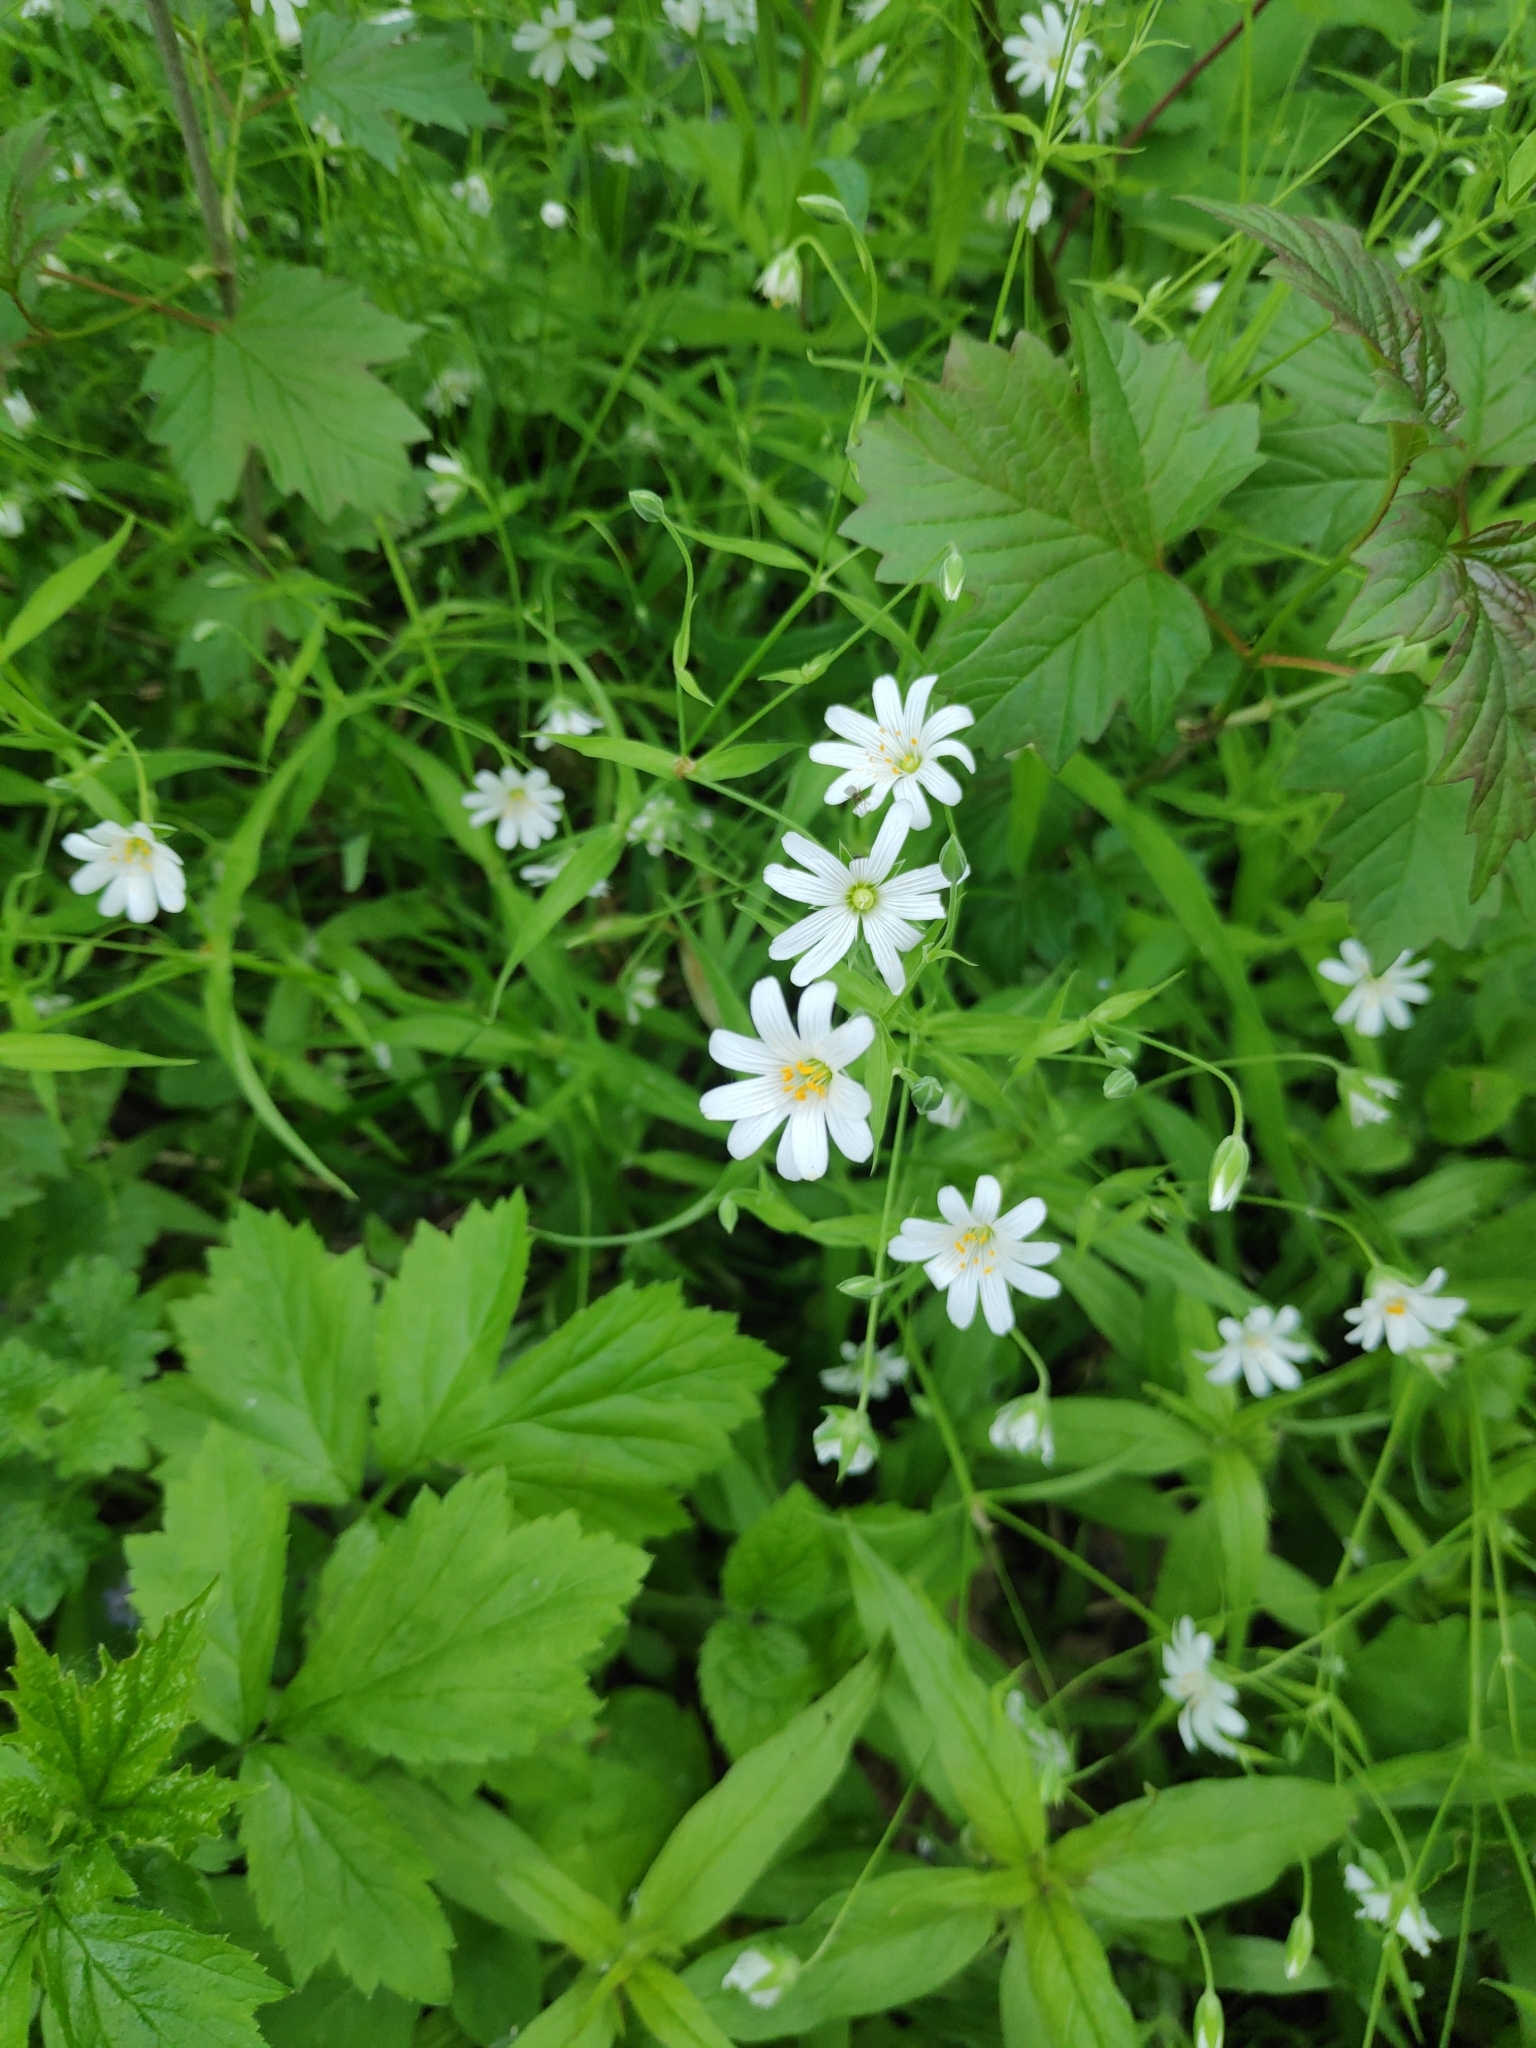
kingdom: Plantae
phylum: Tracheophyta
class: Magnoliopsida
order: Caryophyllales
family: Caryophyllaceae
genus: Rabelera
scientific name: Rabelera holostea
